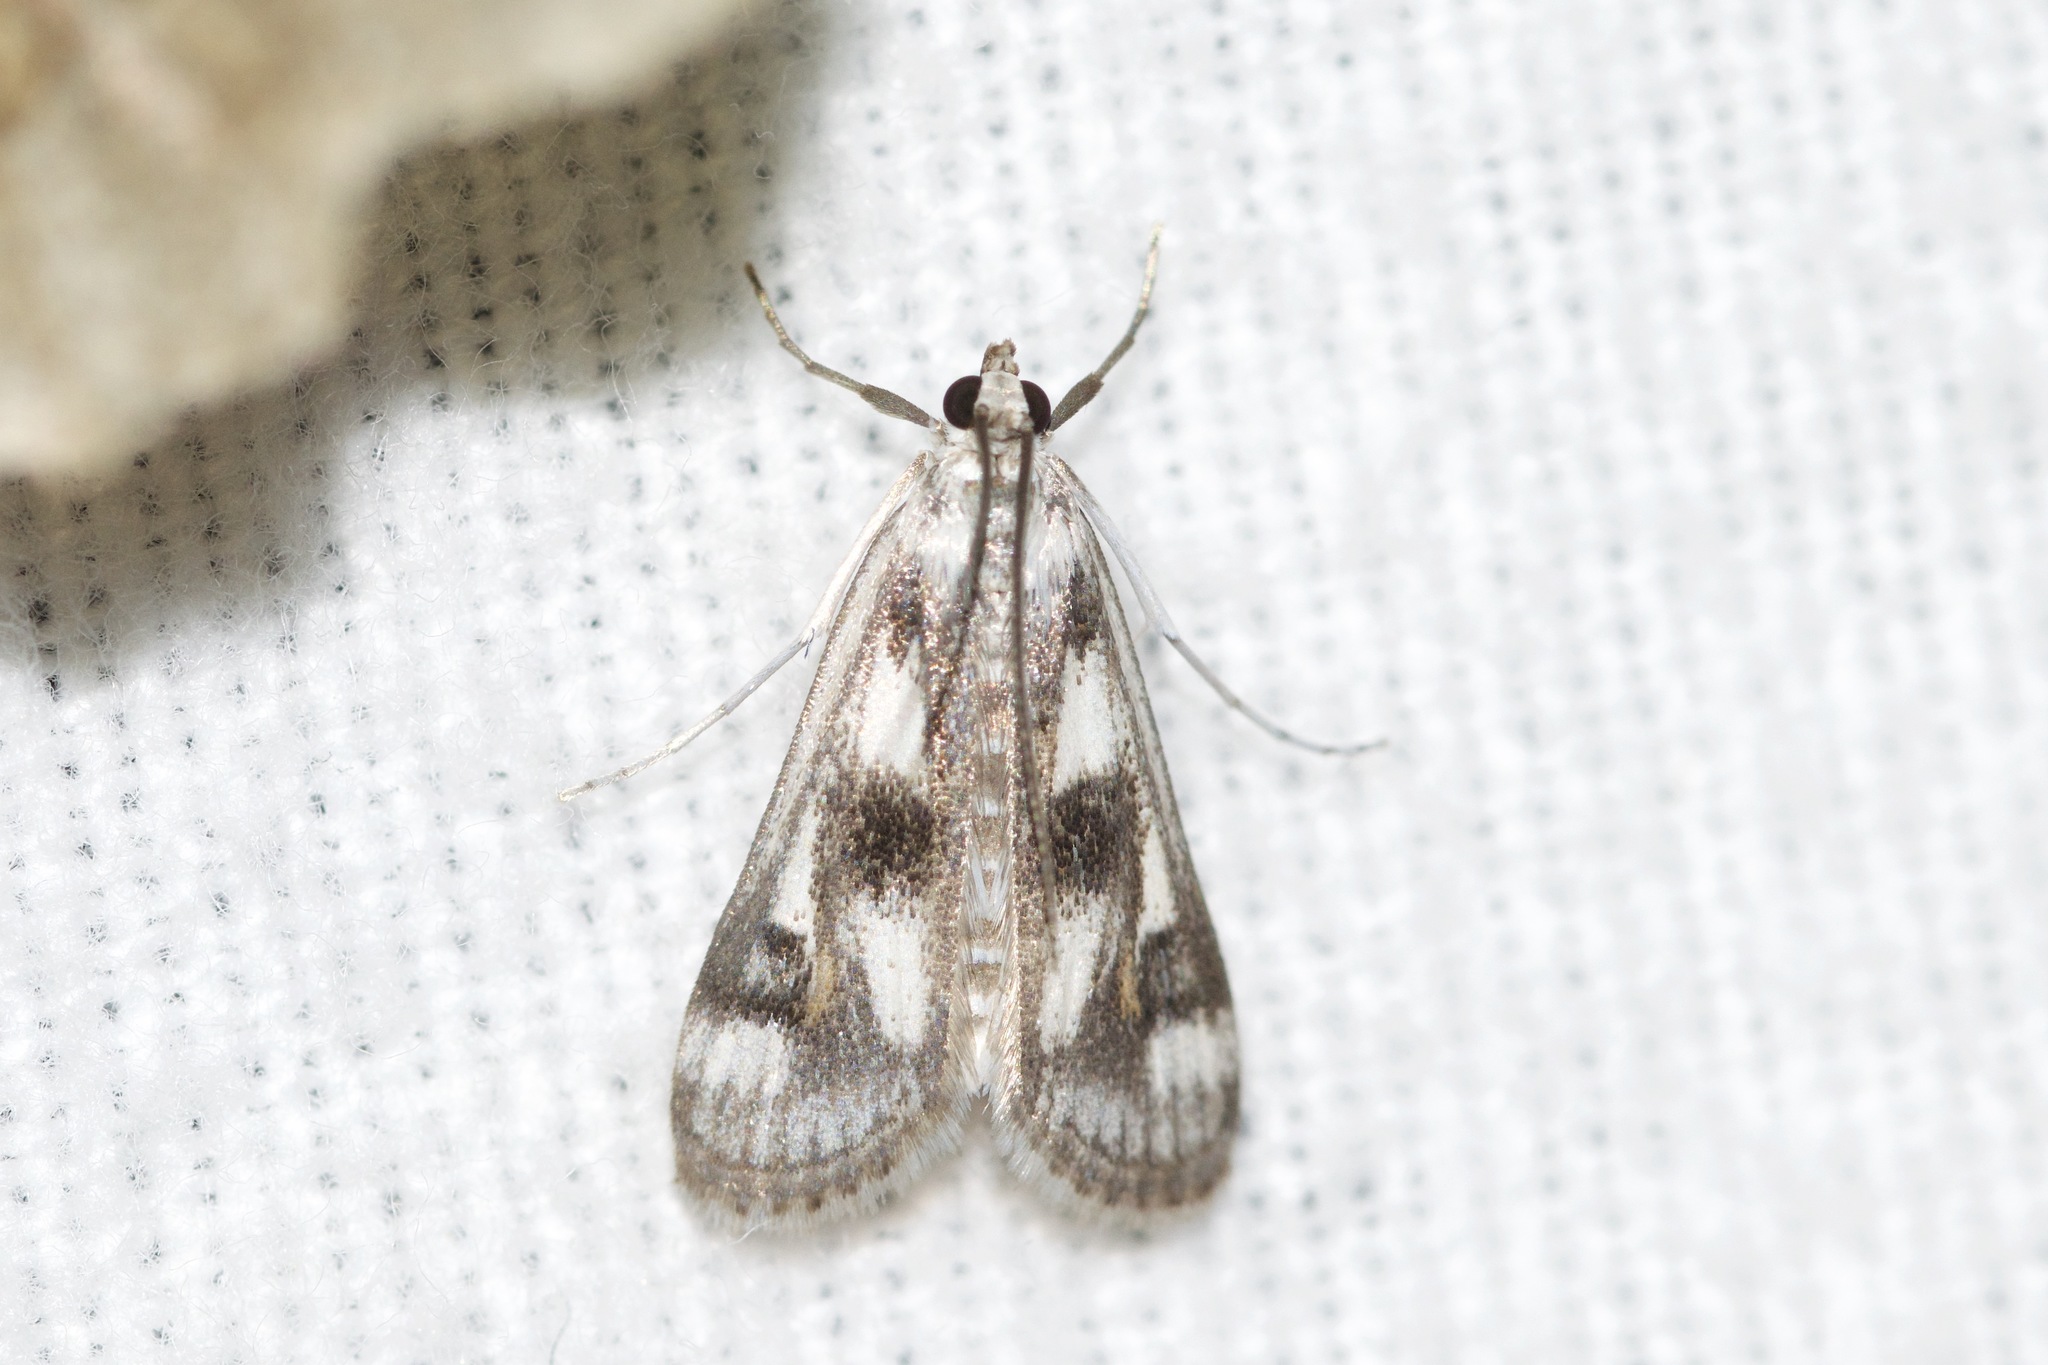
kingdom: Animalia
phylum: Arthropoda
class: Insecta
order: Lepidoptera
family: Crambidae
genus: Parapoynx
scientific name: Parapoynx maculalis
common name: Polymorphic pondweed moth
